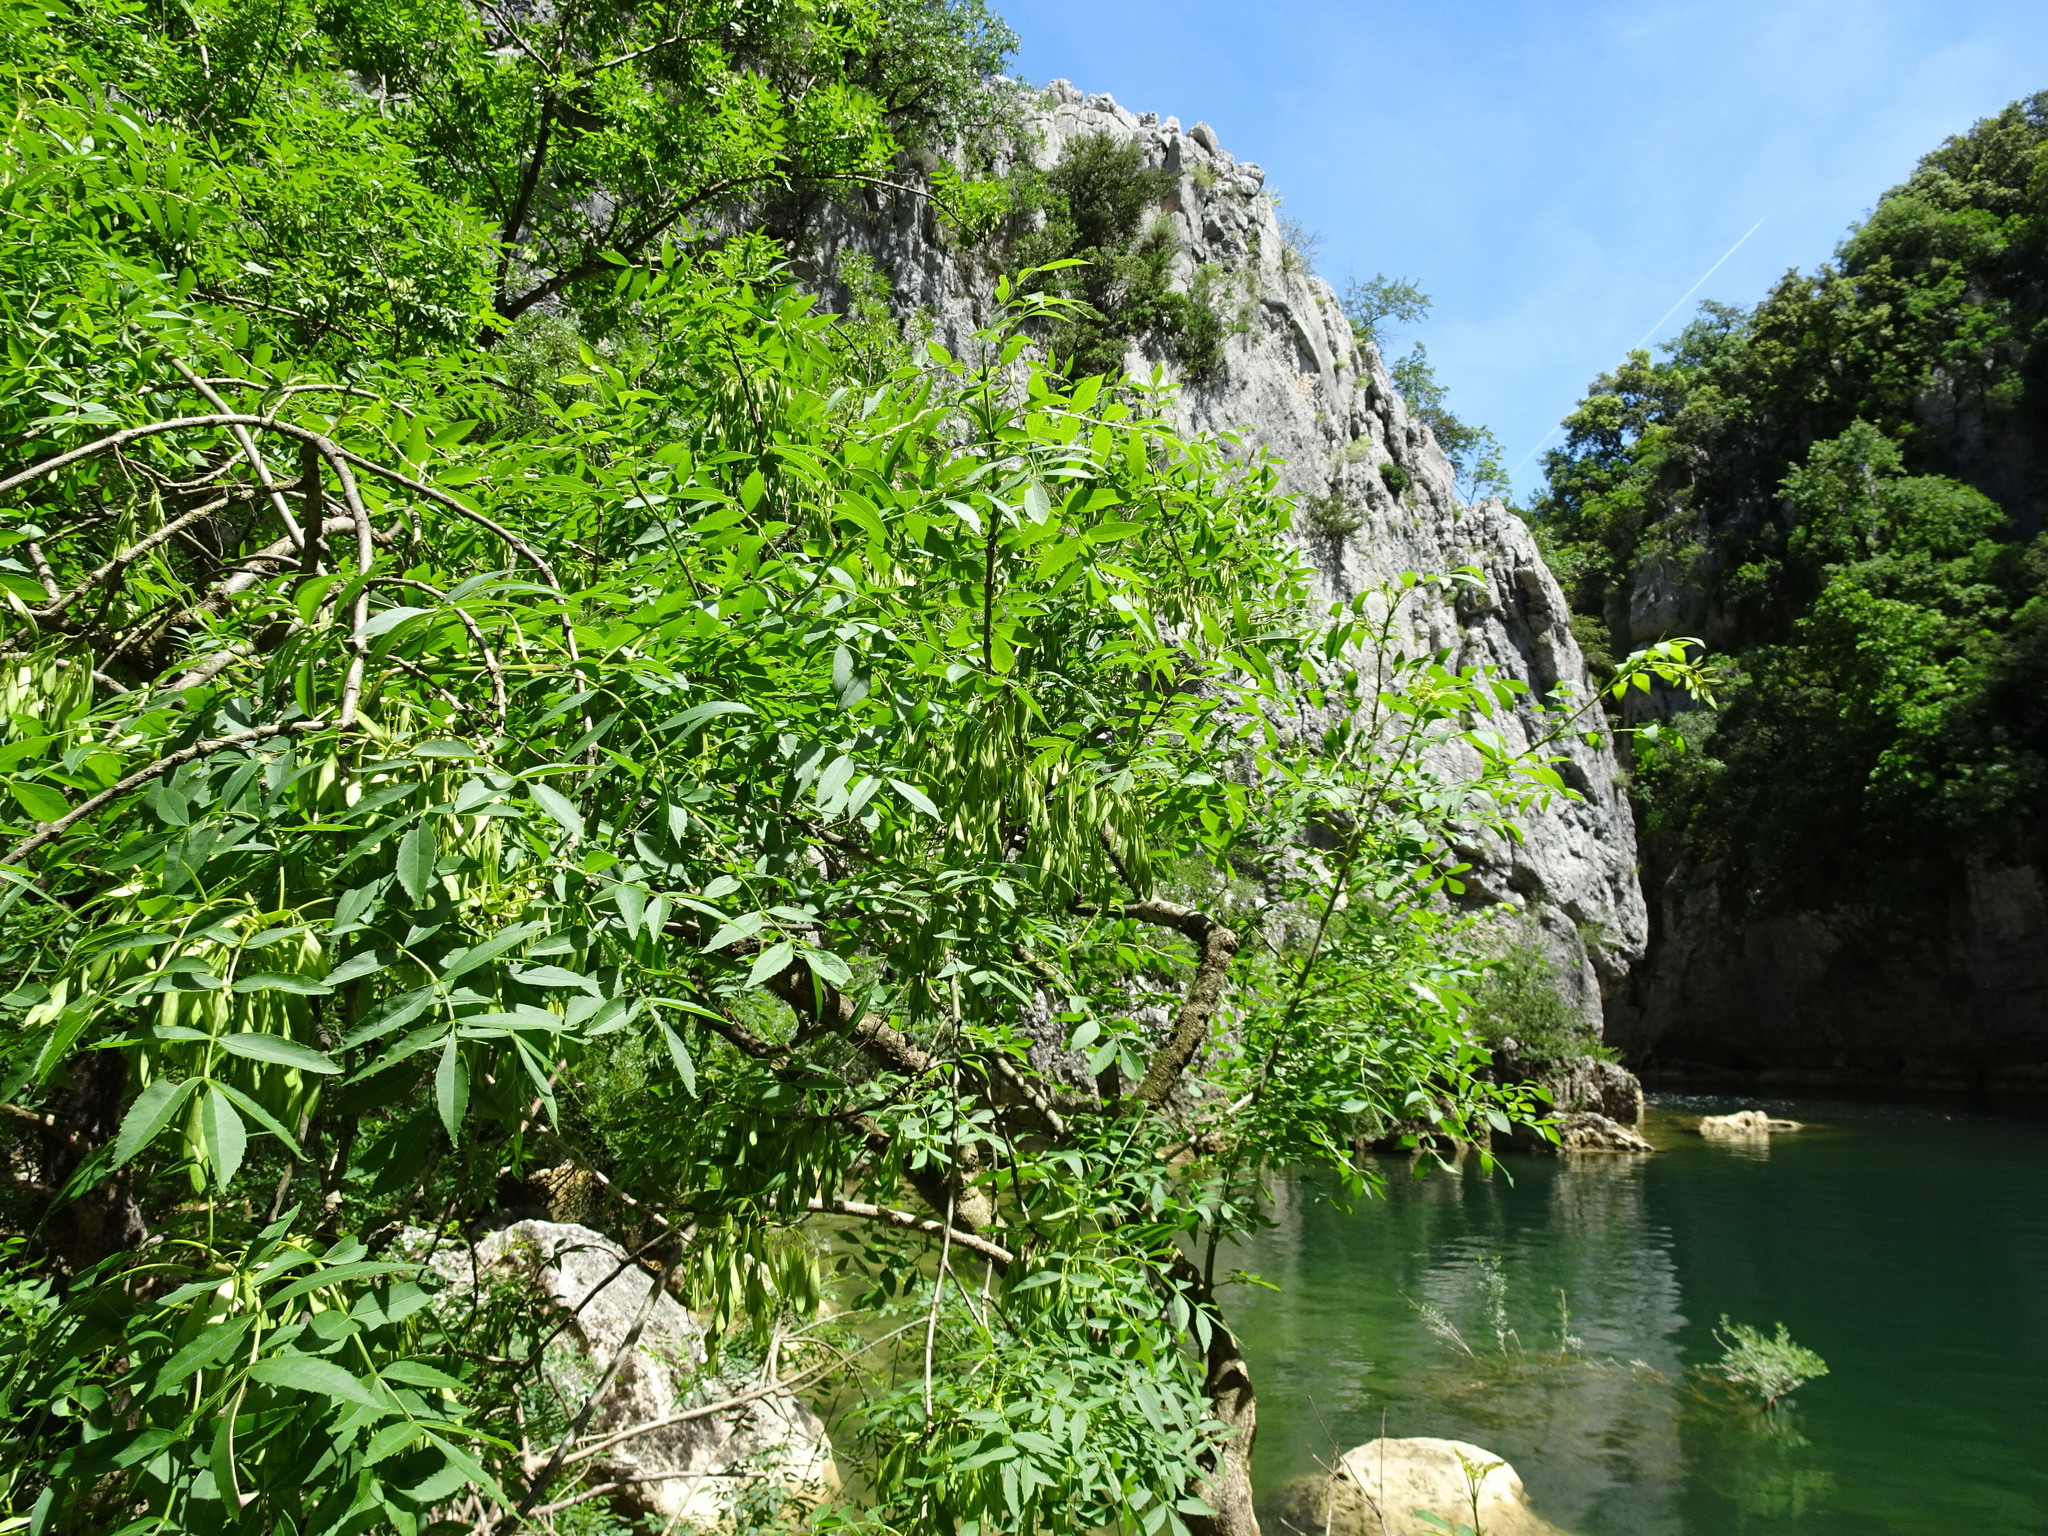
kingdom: Plantae
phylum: Tracheophyta
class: Magnoliopsida
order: Lamiales
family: Oleaceae
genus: Fraxinus
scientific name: Fraxinus angustifolia
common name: Narrow-leafed ash
